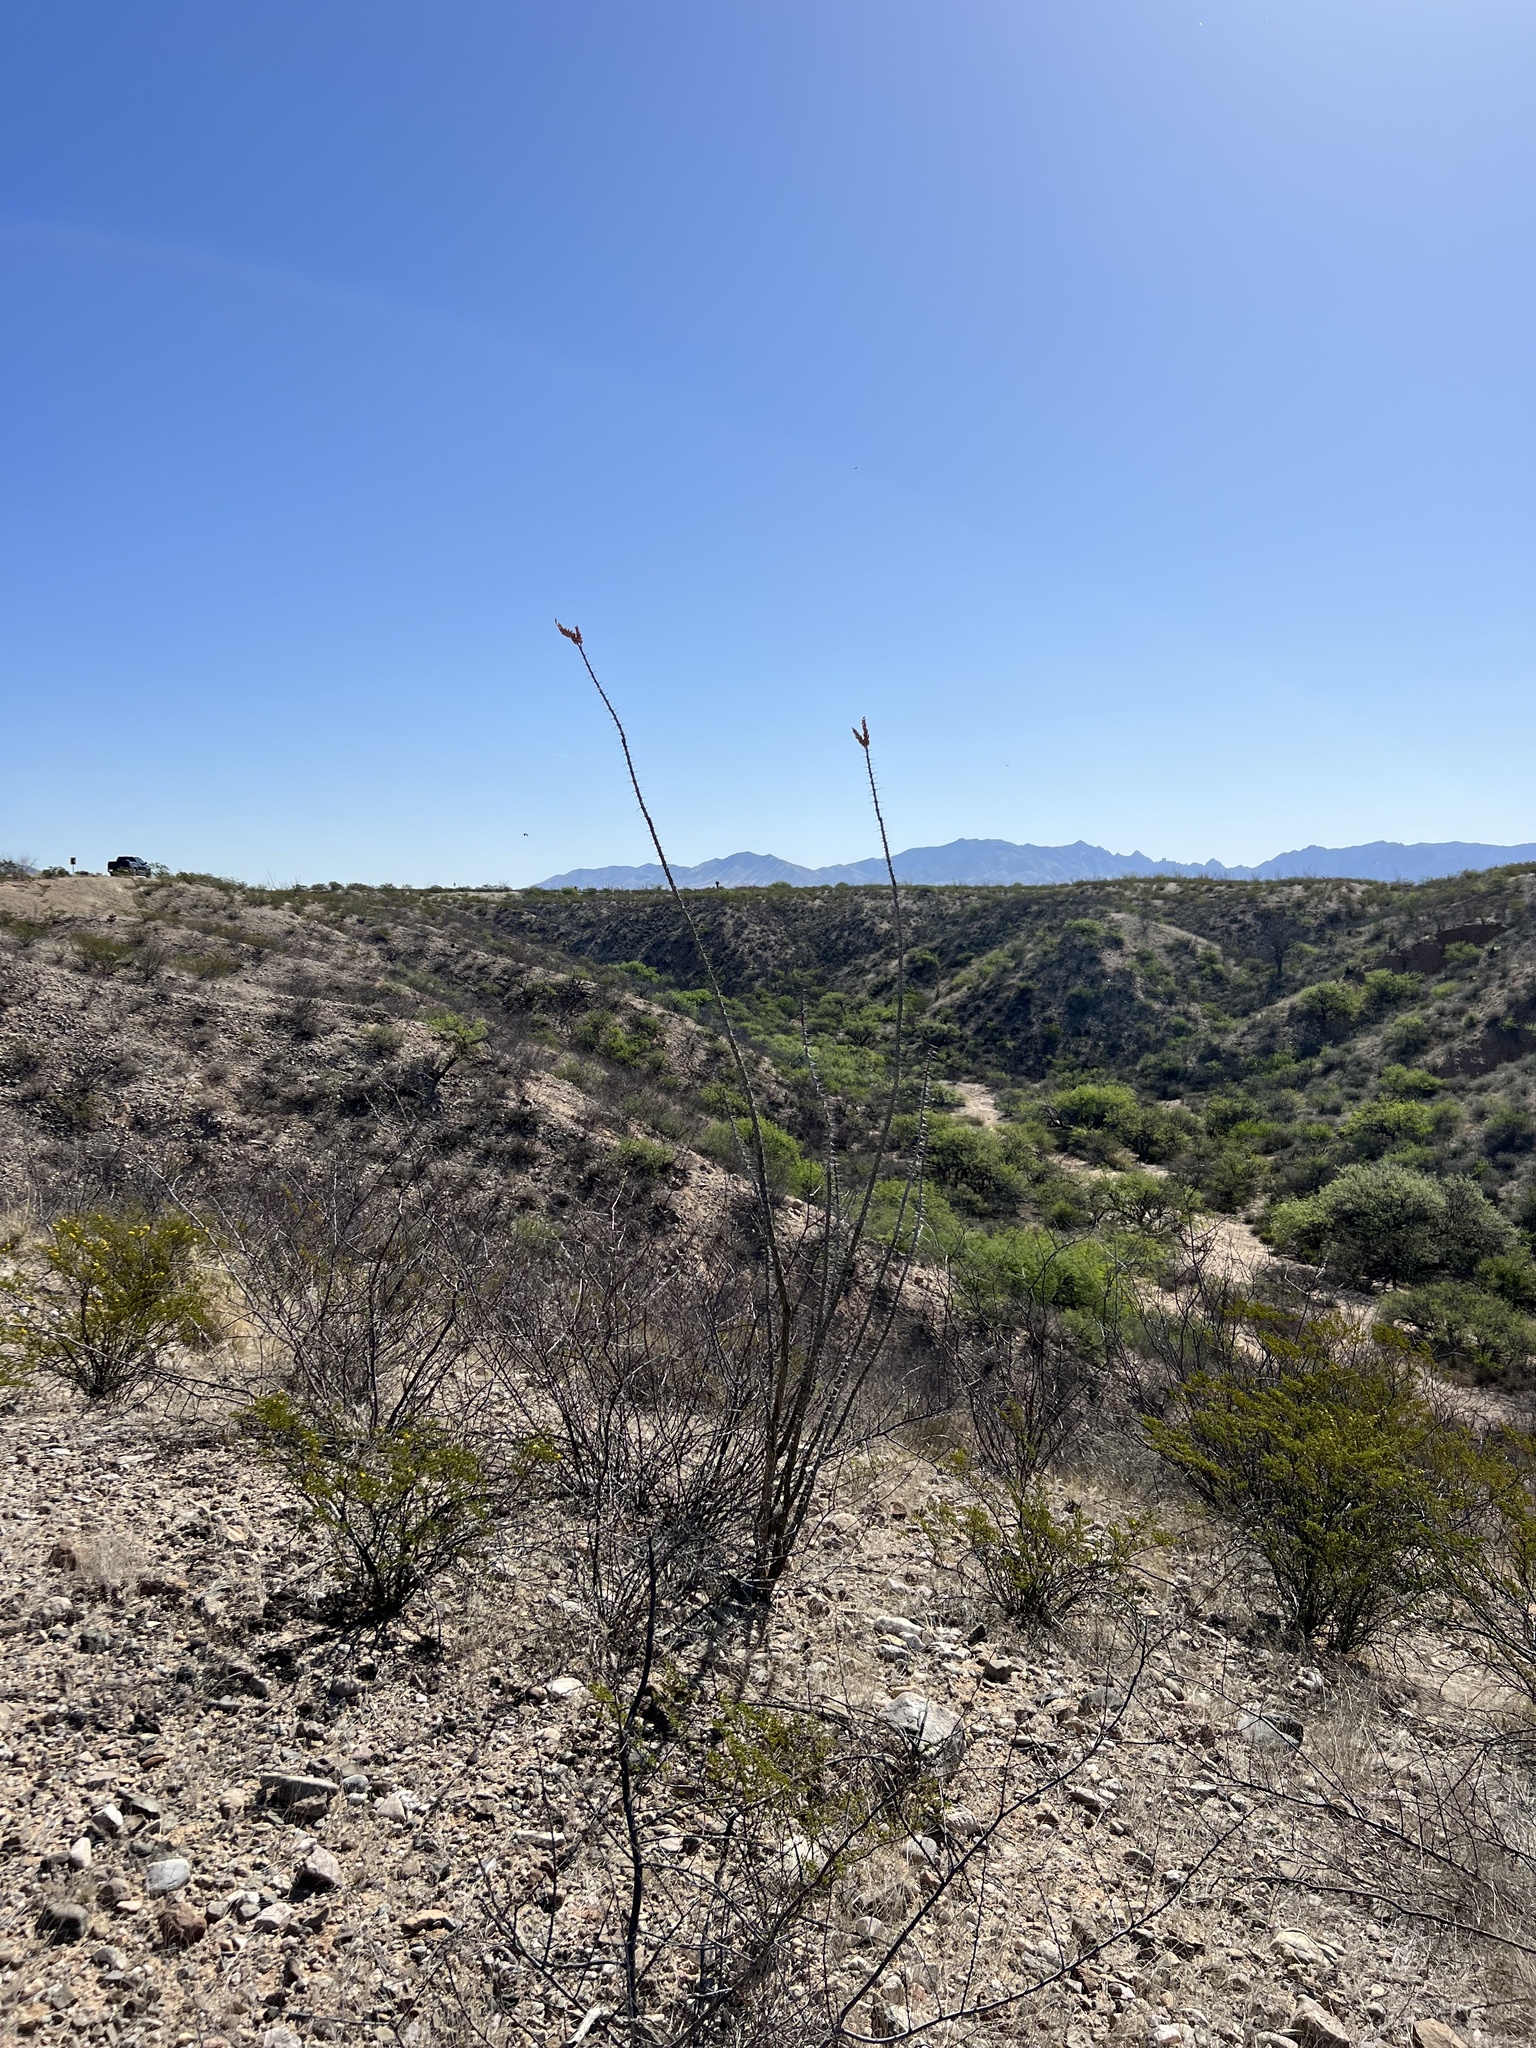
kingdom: Plantae
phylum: Tracheophyta
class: Magnoliopsida
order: Ericales
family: Fouquieriaceae
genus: Fouquieria
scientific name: Fouquieria splendens
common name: Vine-cactus
